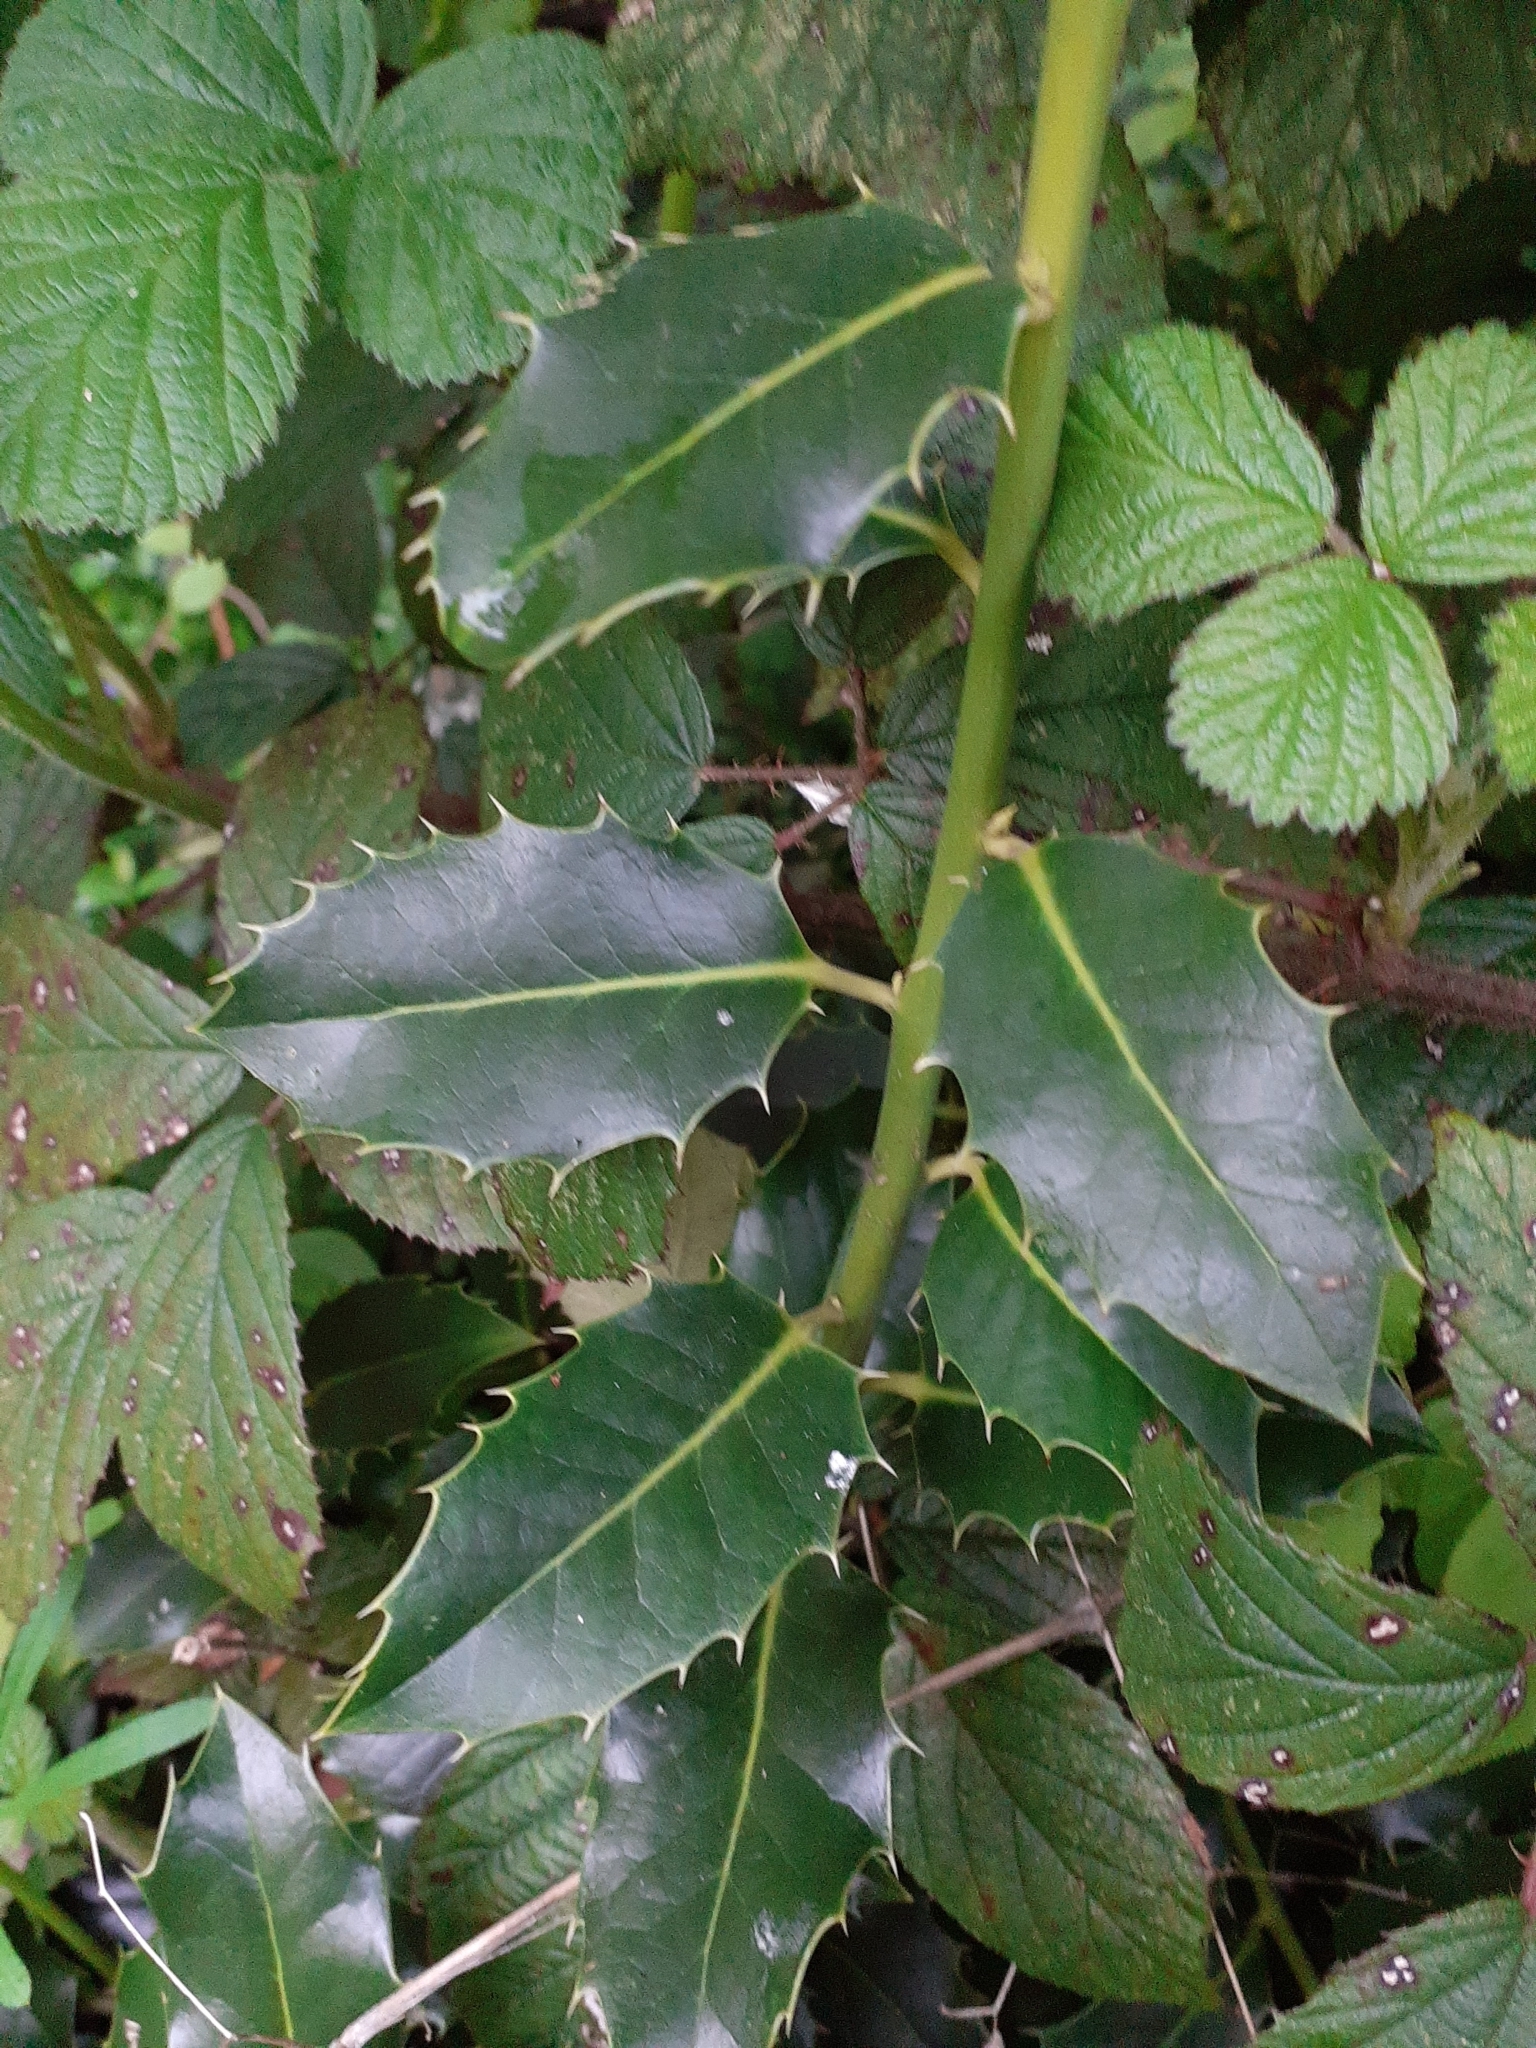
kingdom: Plantae
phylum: Tracheophyta
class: Magnoliopsida
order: Aquifoliales
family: Aquifoliaceae
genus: Ilex
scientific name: Ilex aquifolium
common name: English holly
